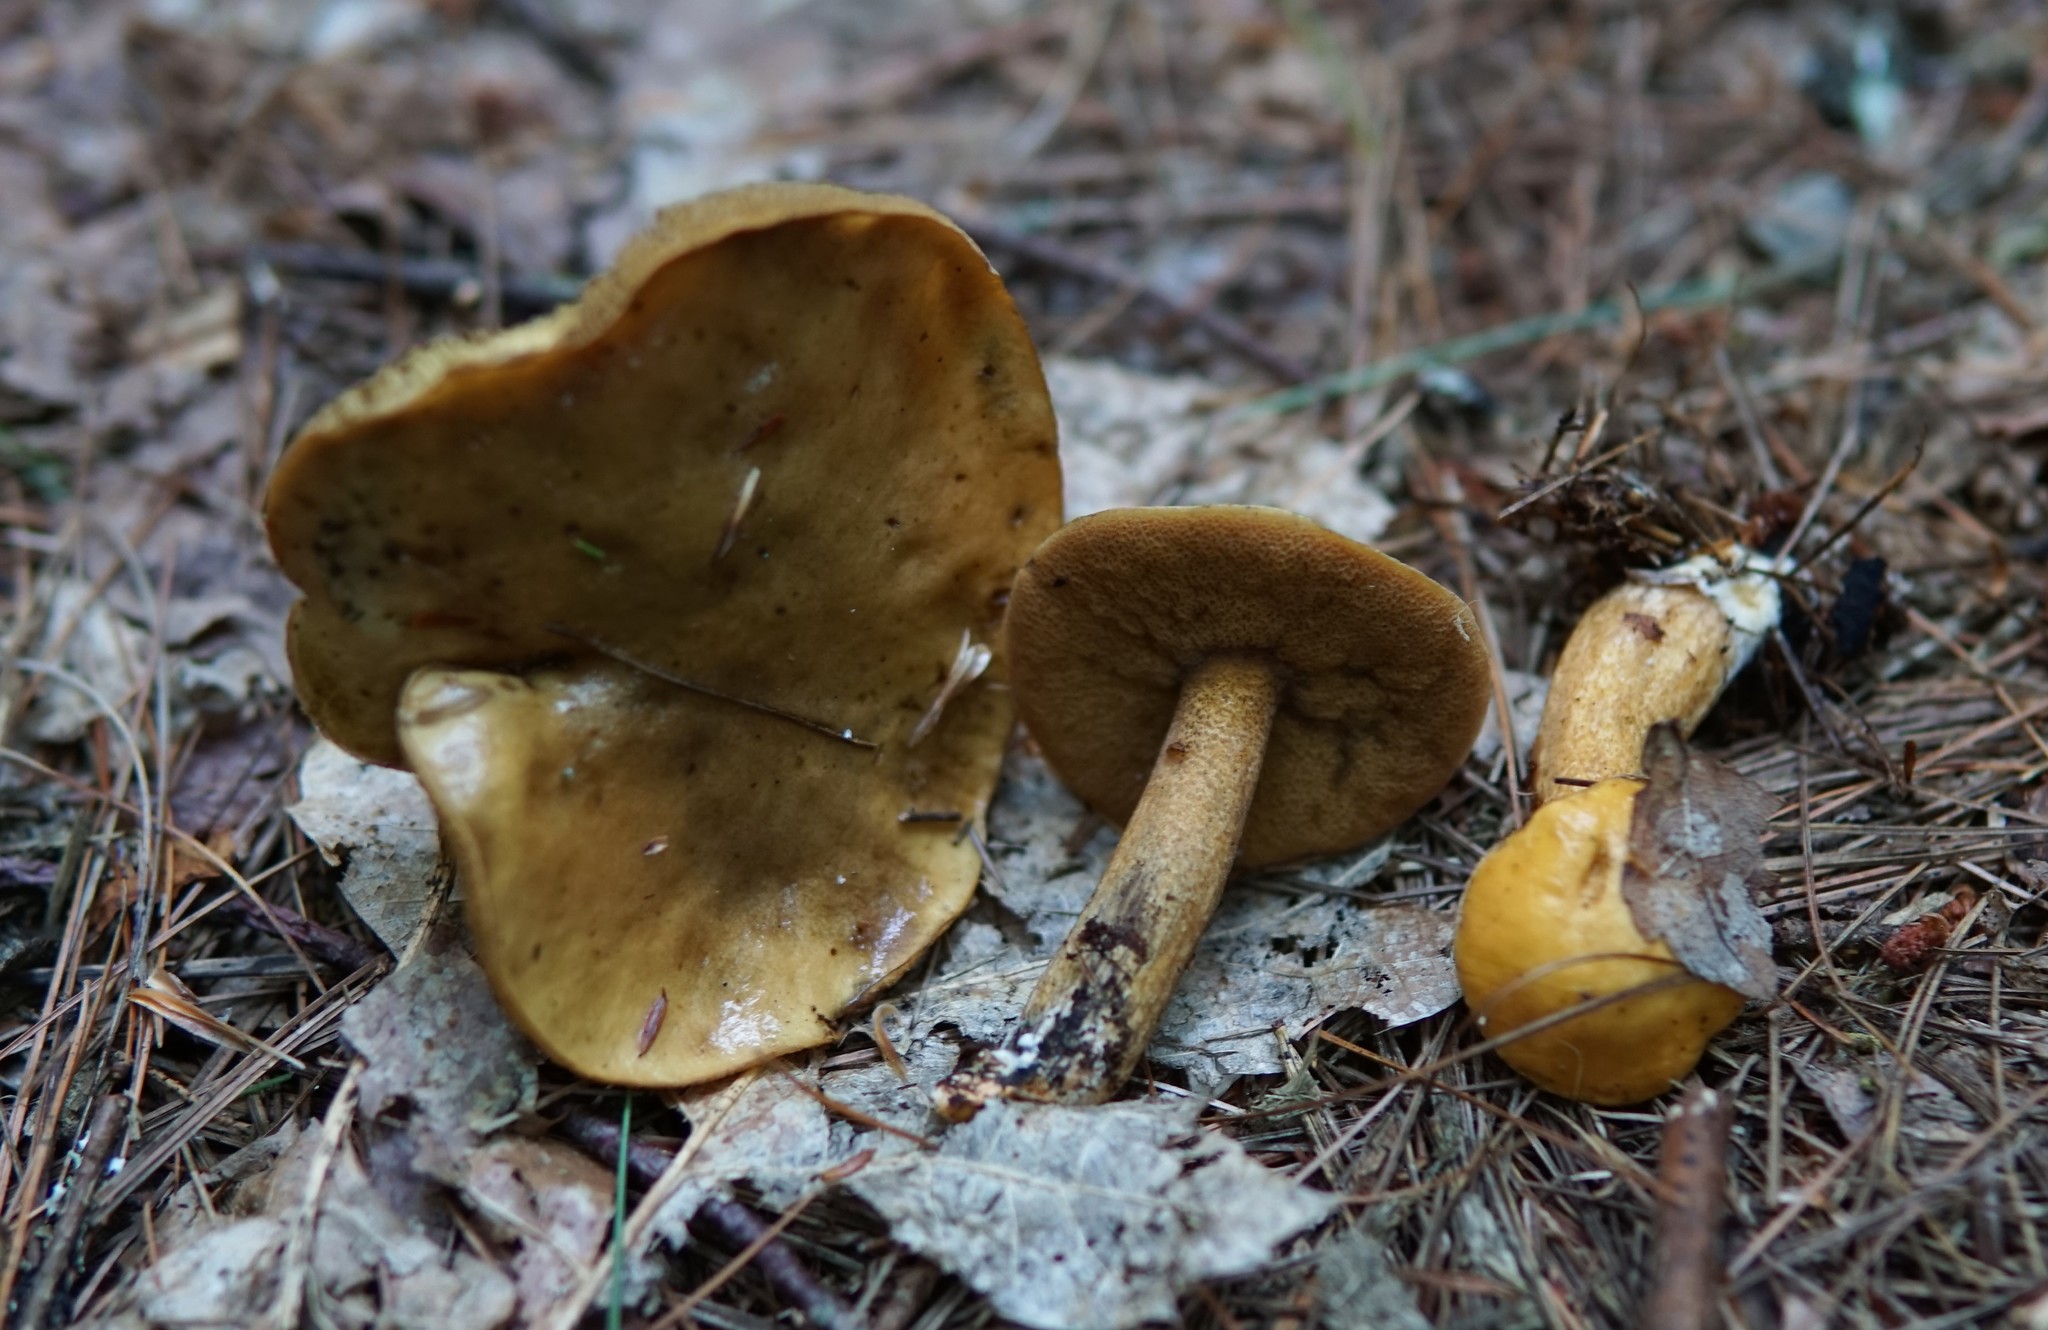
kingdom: Fungi
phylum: Basidiomycota
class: Agaricomycetes
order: Boletales
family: Suillaceae
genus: Suillus
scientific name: Suillus punctipes
